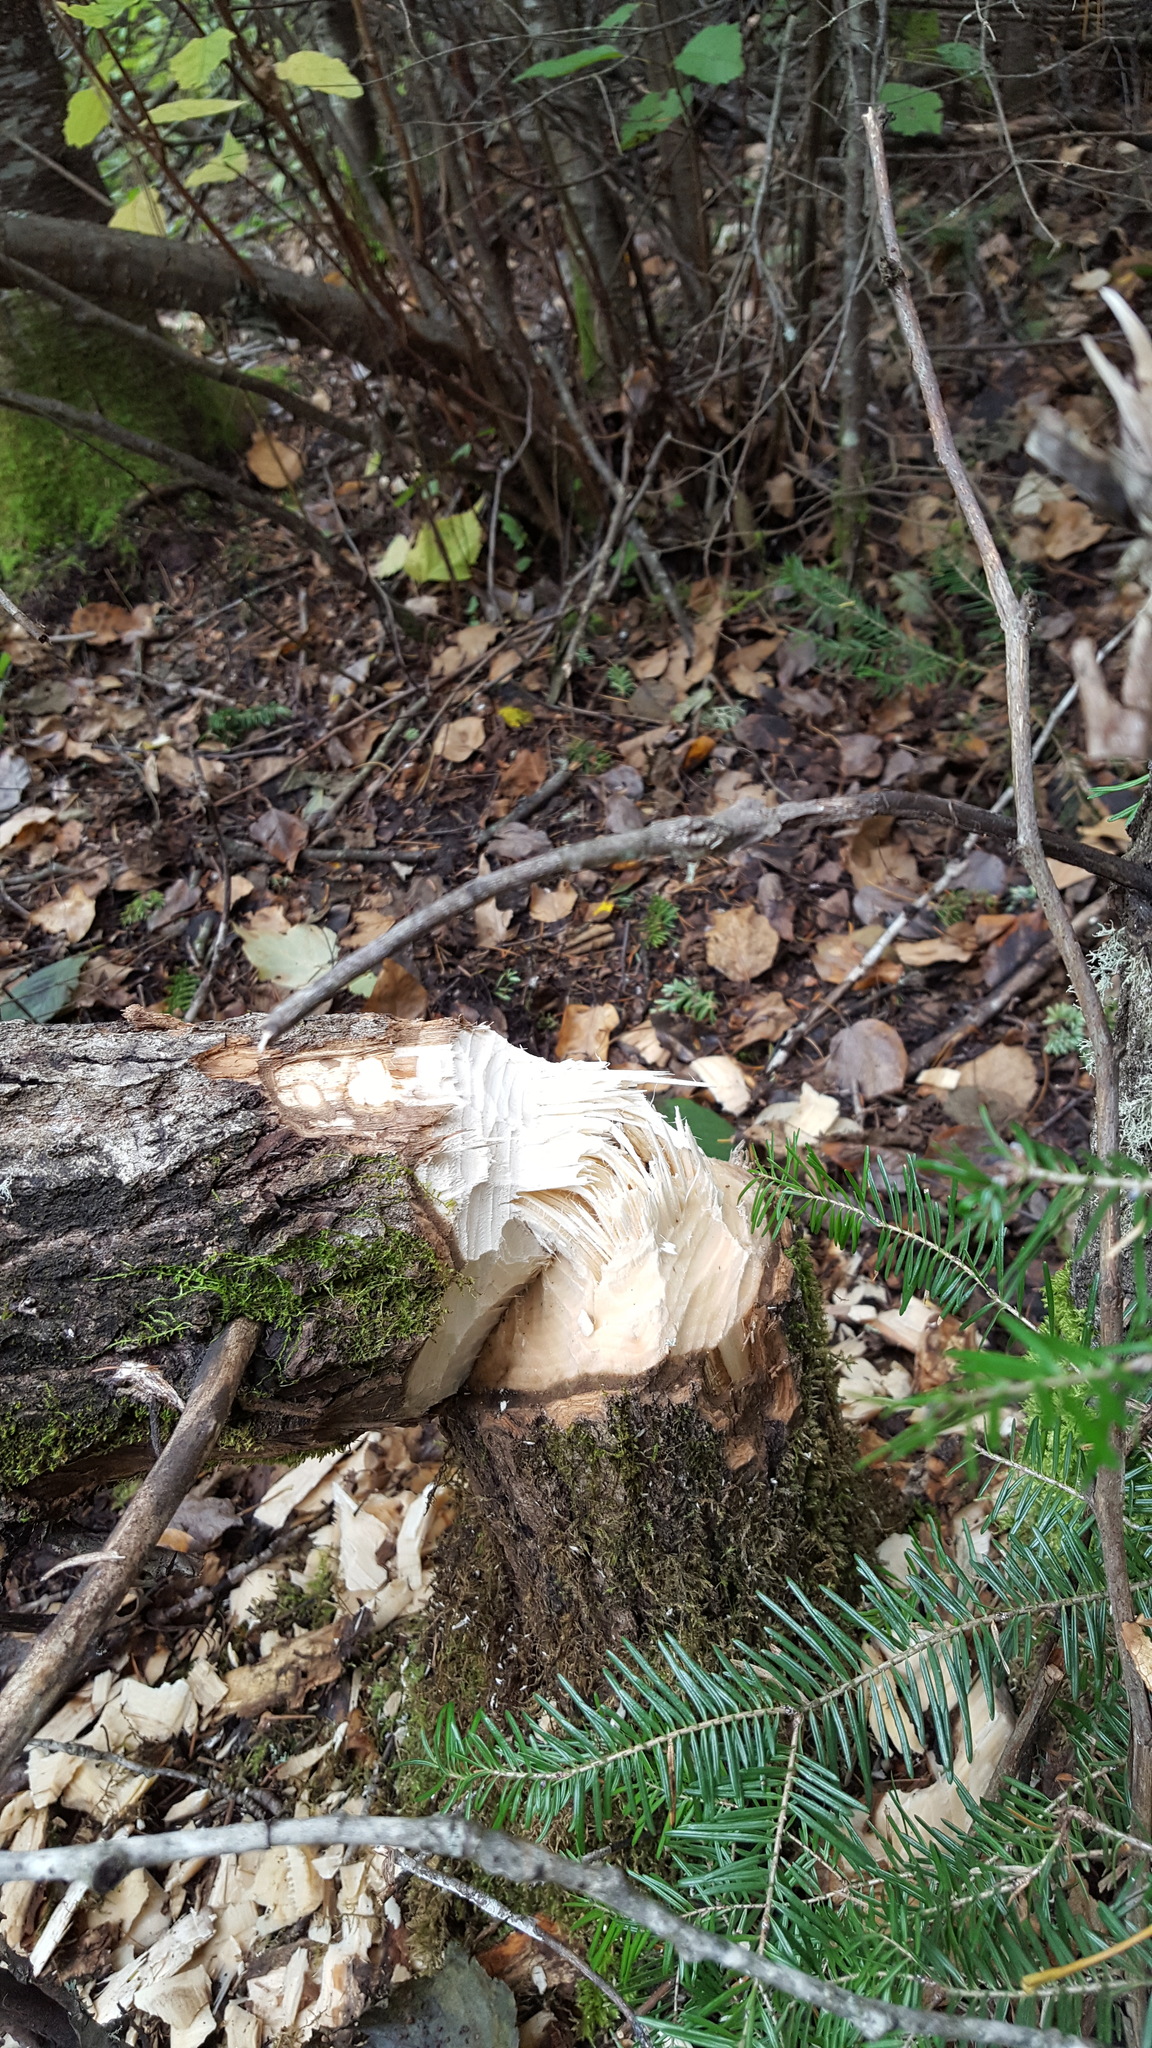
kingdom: Animalia
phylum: Chordata
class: Mammalia
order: Rodentia
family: Castoridae
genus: Castor
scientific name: Castor canadensis
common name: American beaver
